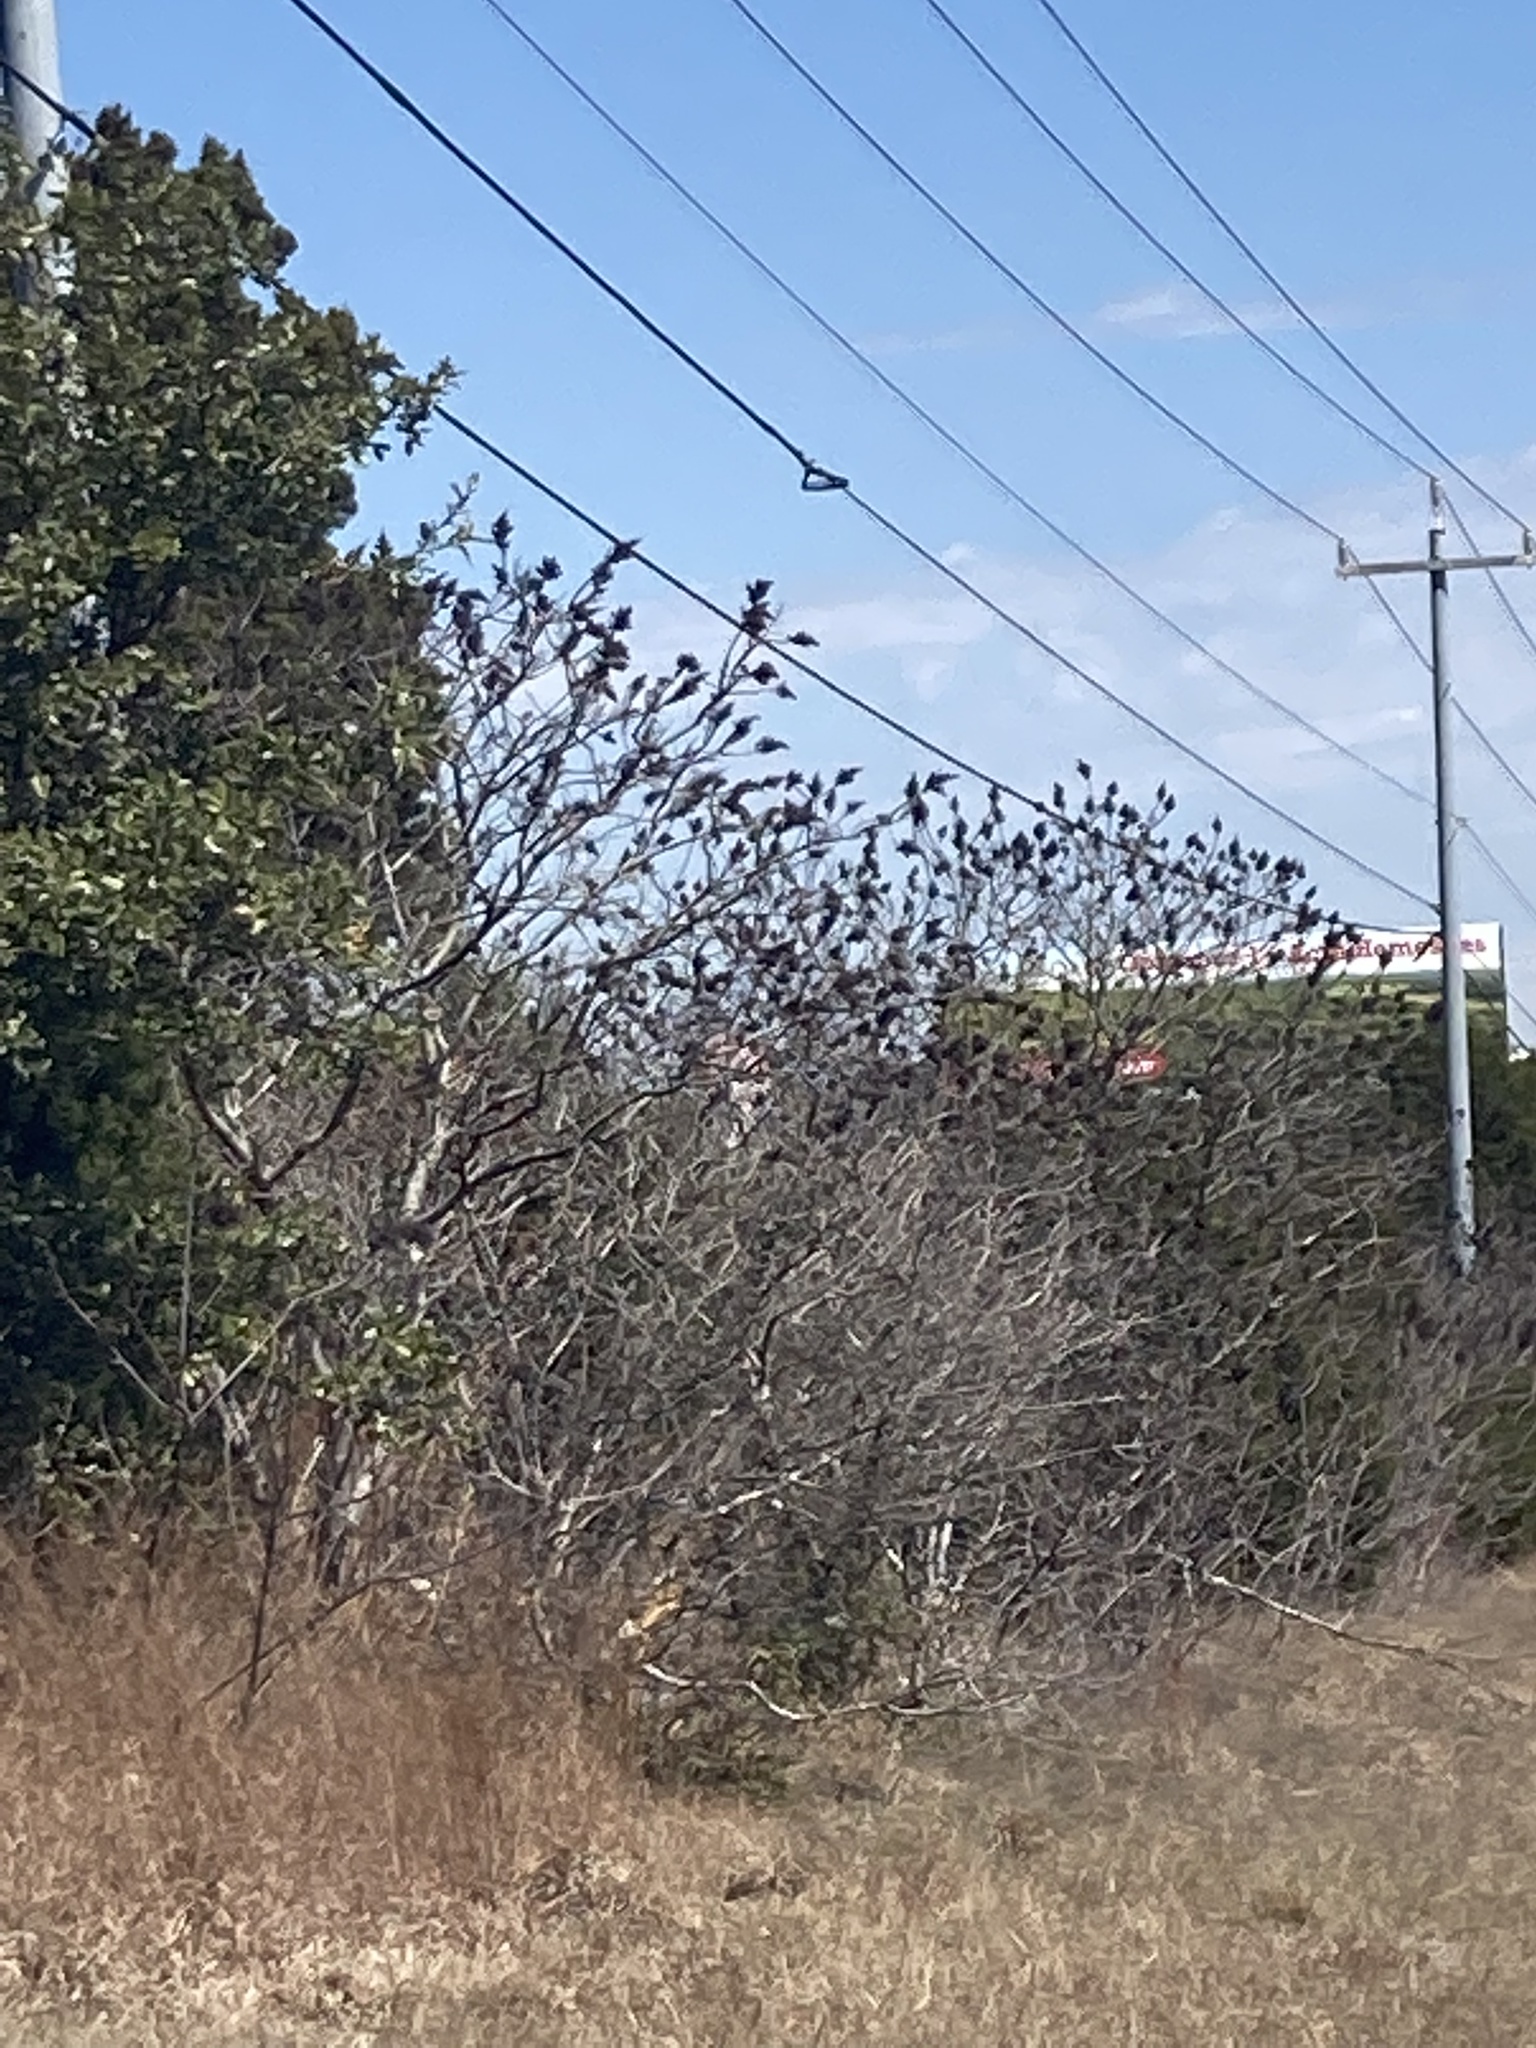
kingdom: Plantae
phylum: Tracheophyta
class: Magnoliopsida
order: Sapindales
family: Anacardiaceae
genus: Rhus
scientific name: Rhus lanceolata
